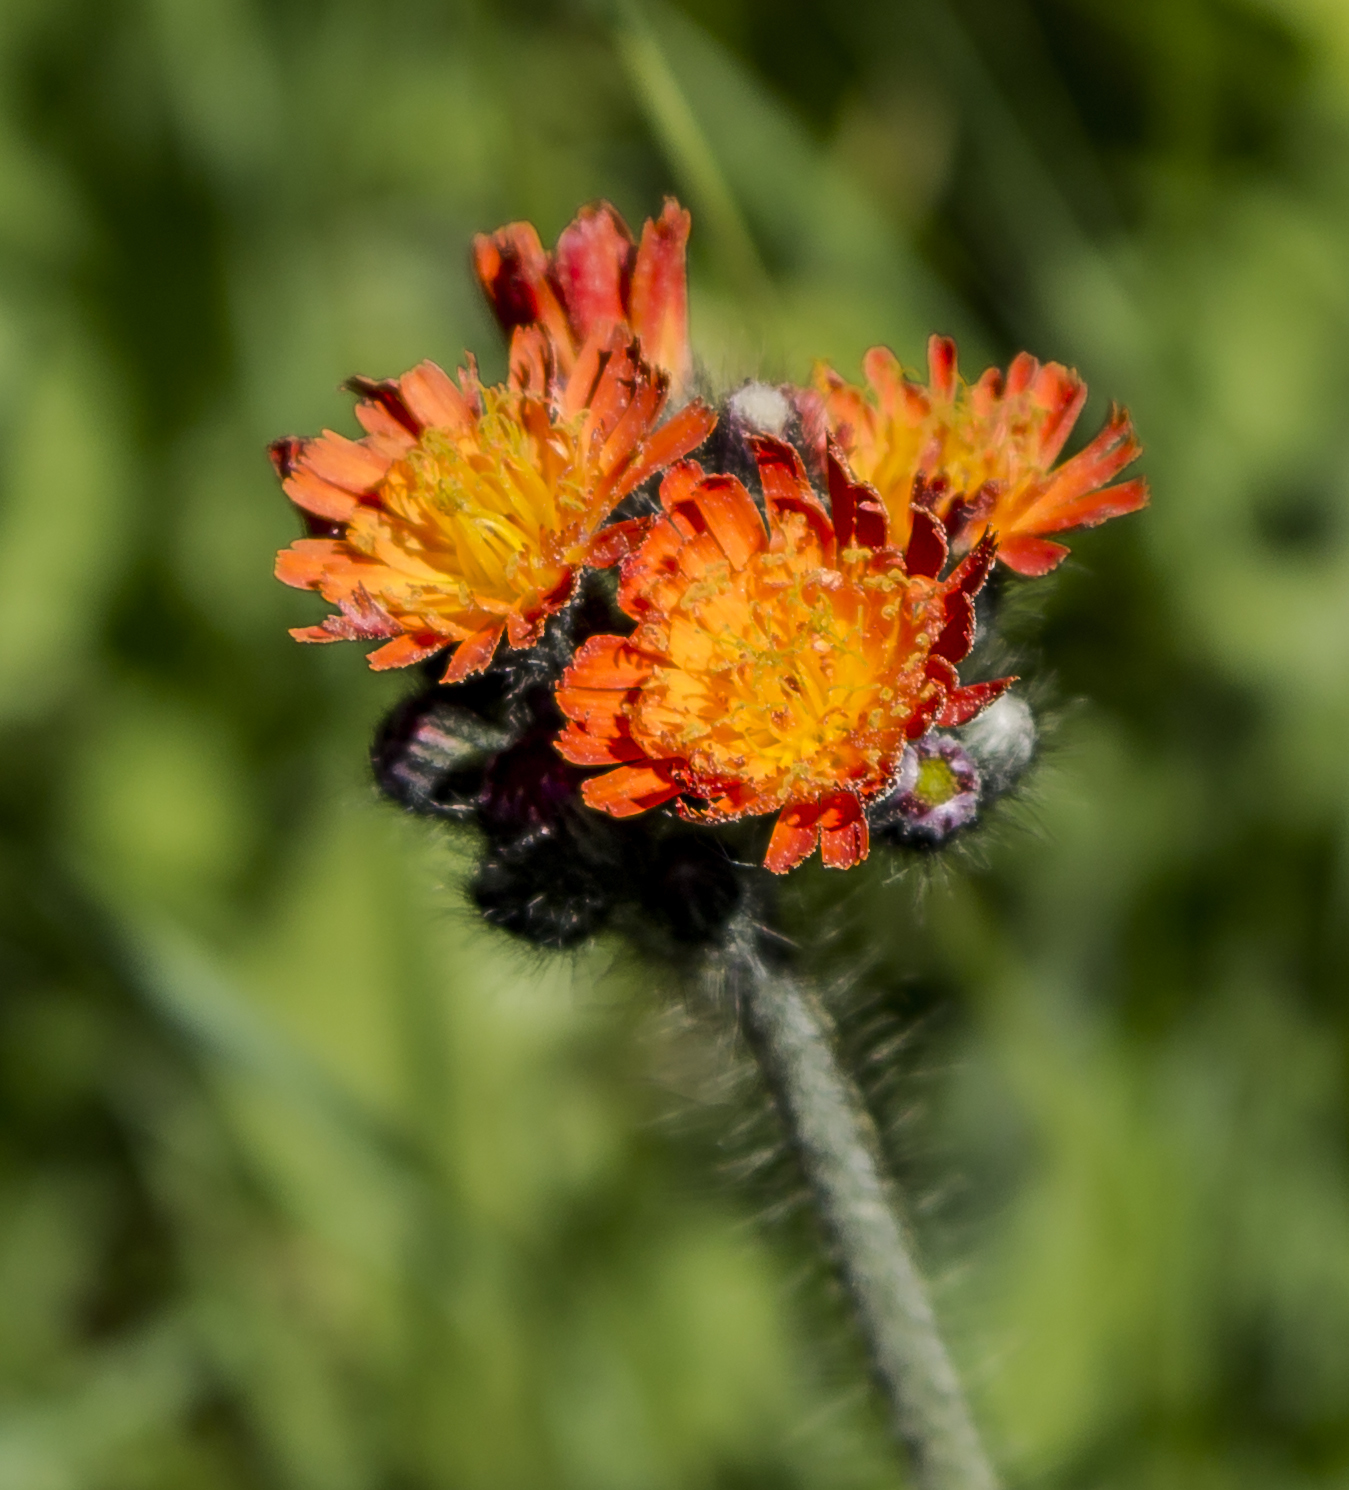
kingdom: Plantae
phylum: Tracheophyta
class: Magnoliopsida
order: Asterales
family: Asteraceae
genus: Pilosella
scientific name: Pilosella aurantiaca
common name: Fox-and-cubs
